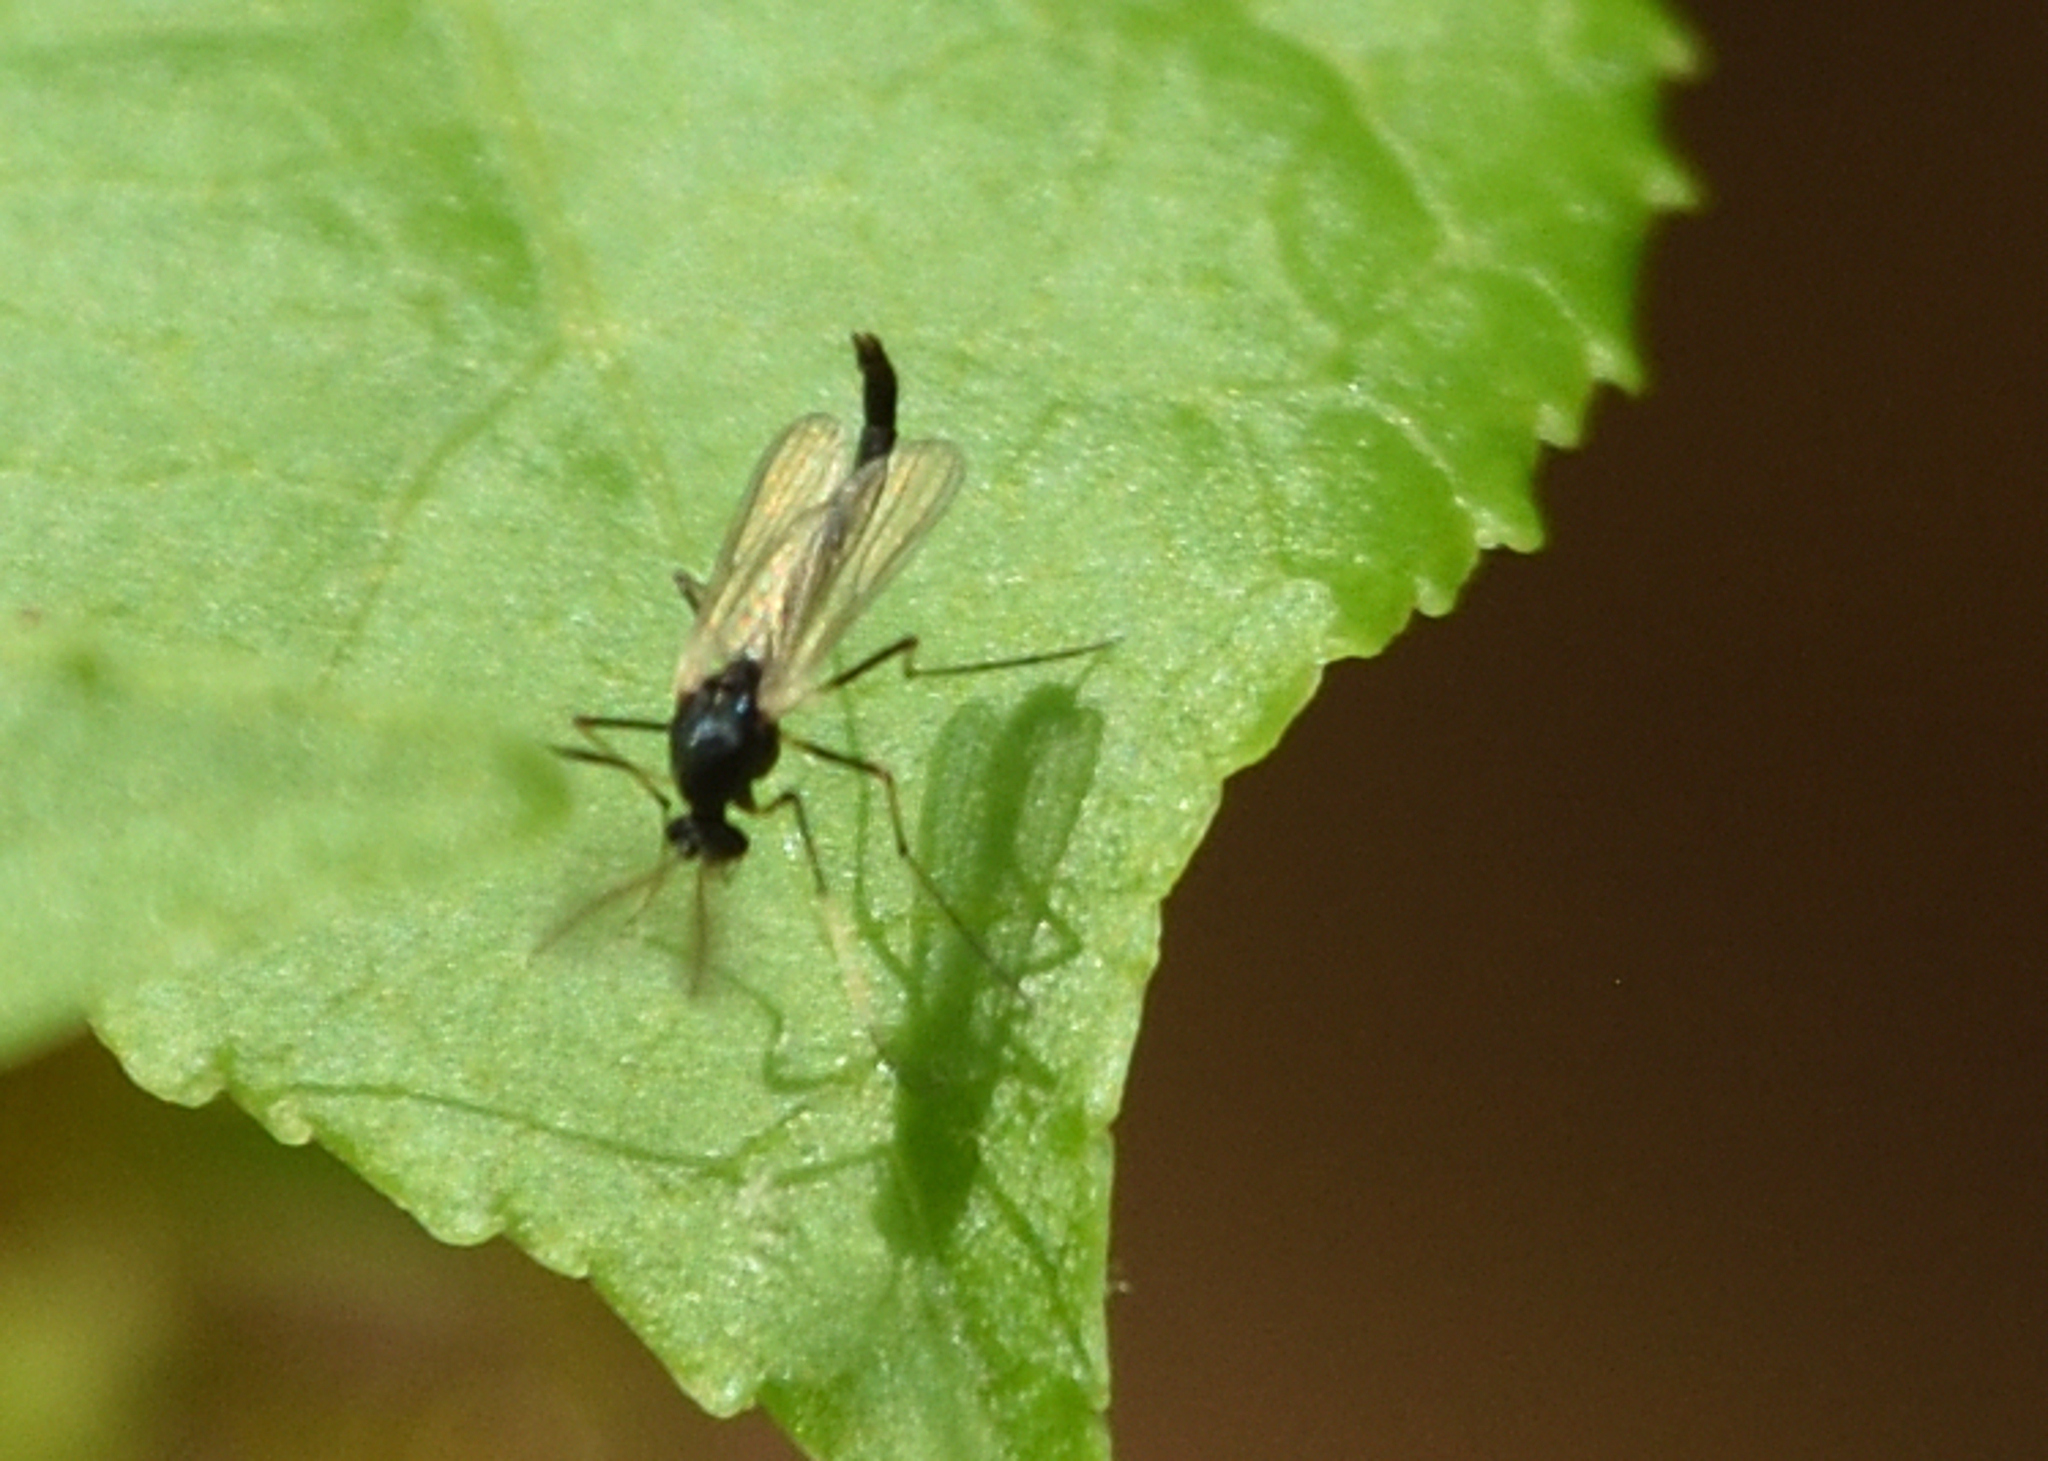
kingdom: Animalia
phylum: Arthropoda
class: Insecta
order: Diptera
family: Chironomidae
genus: Paratendipes
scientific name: Paratendipes albimanus
